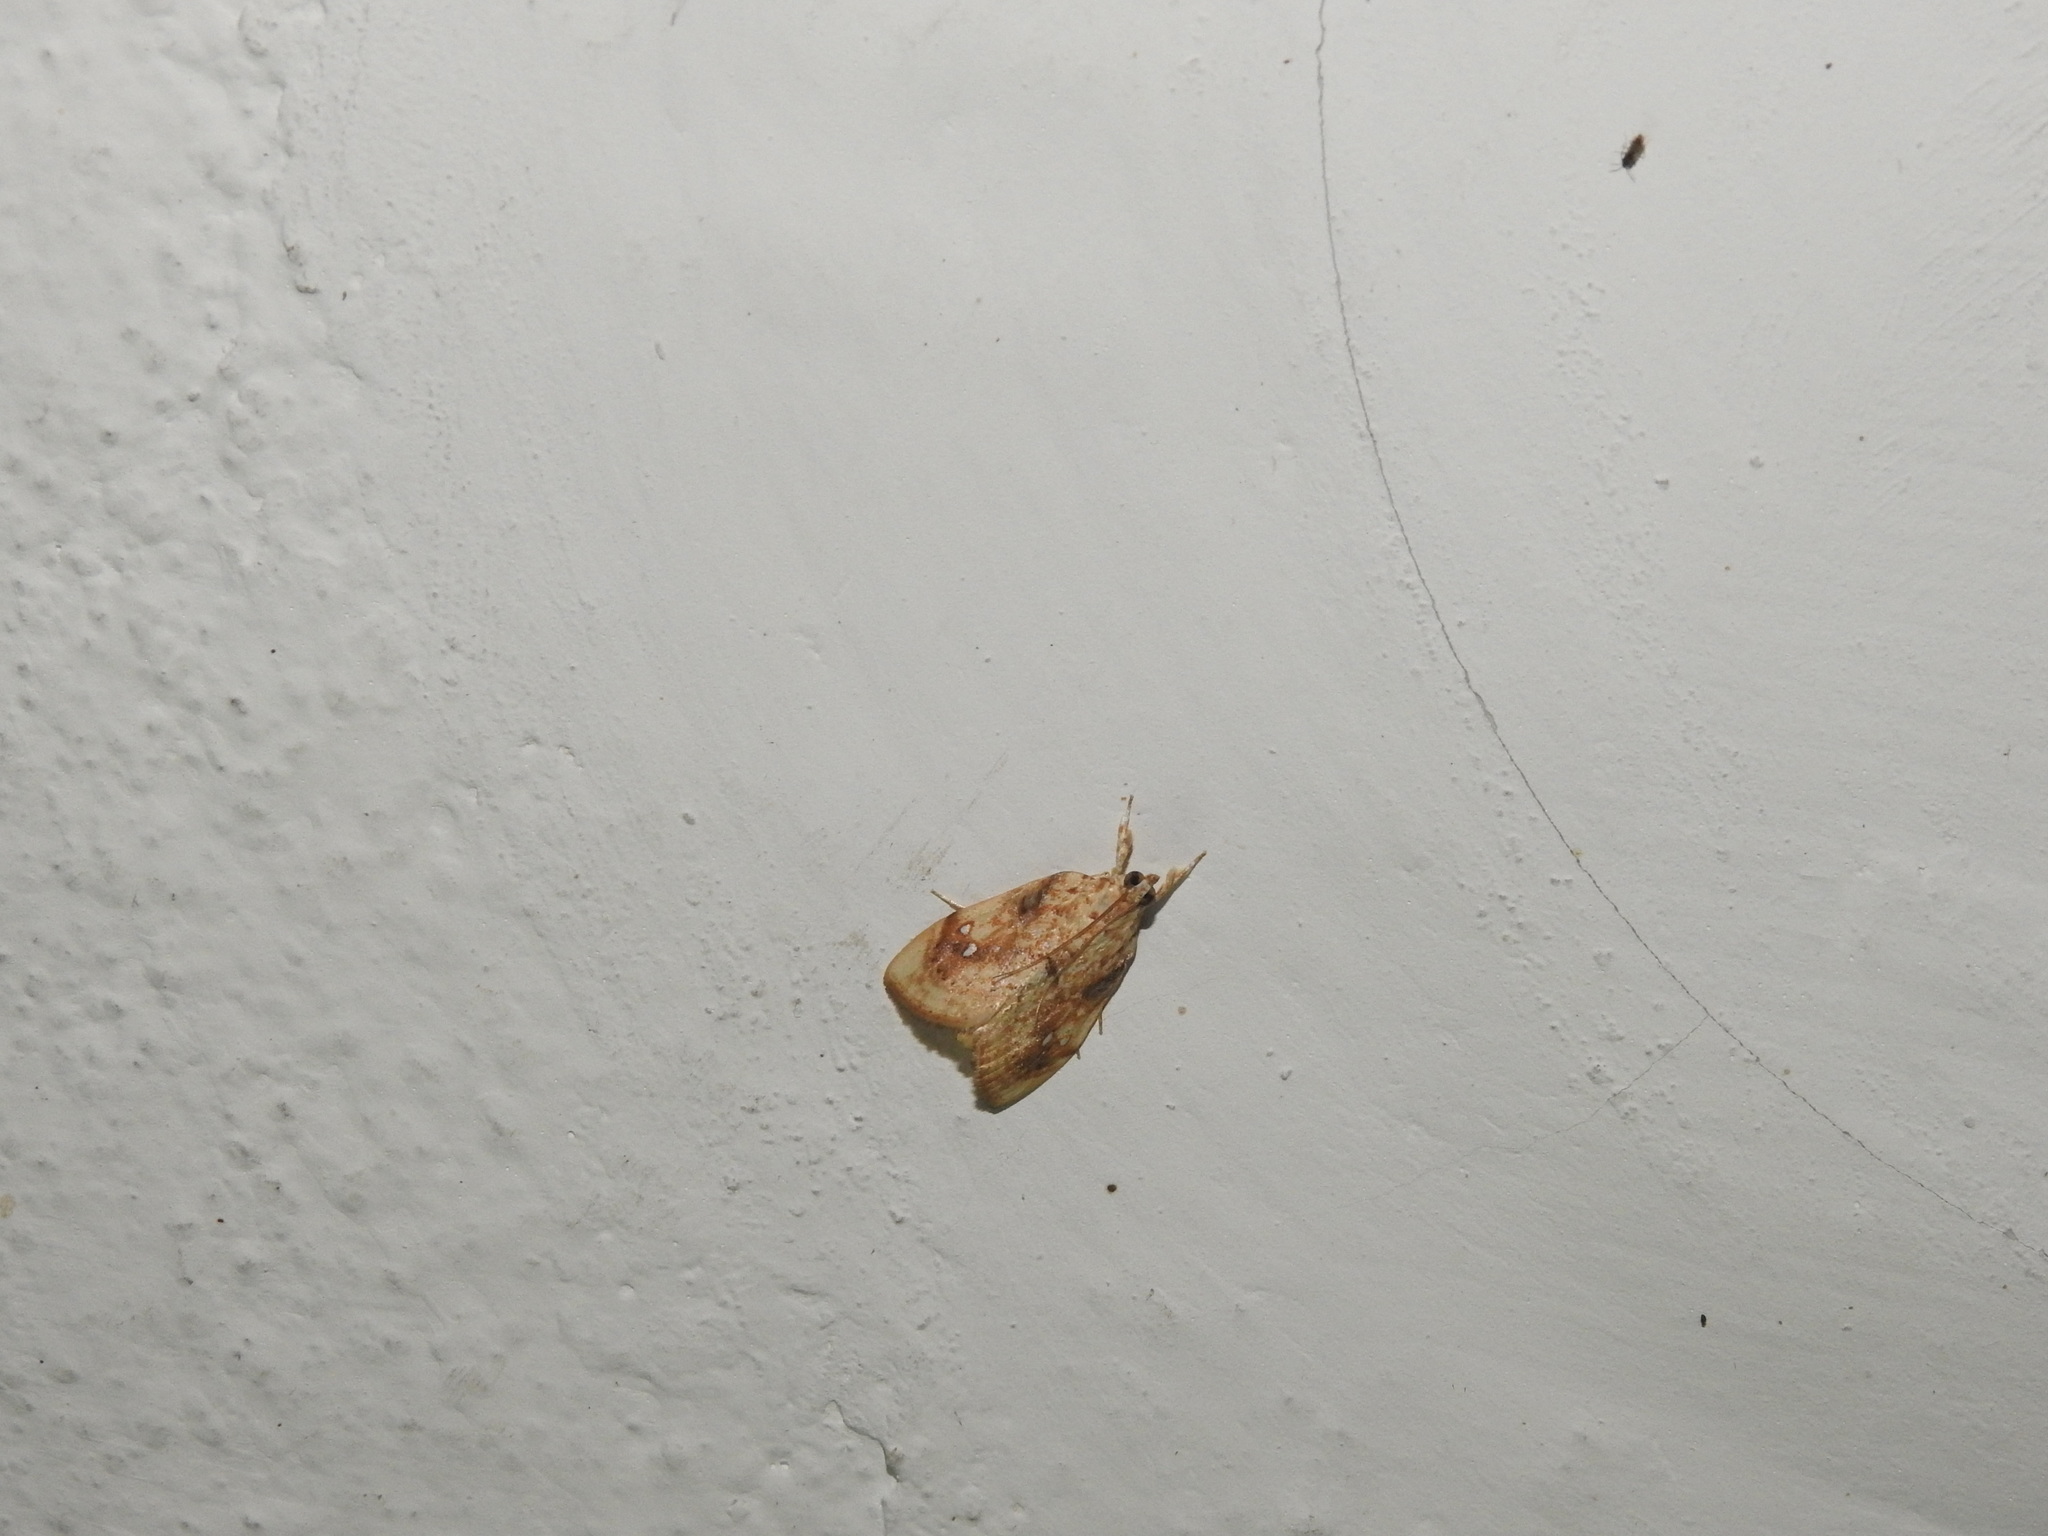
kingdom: Animalia
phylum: Arthropoda
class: Insecta
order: Lepidoptera
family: Crambidae
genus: Crocidolomia
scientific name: Crocidolomia pavonana
